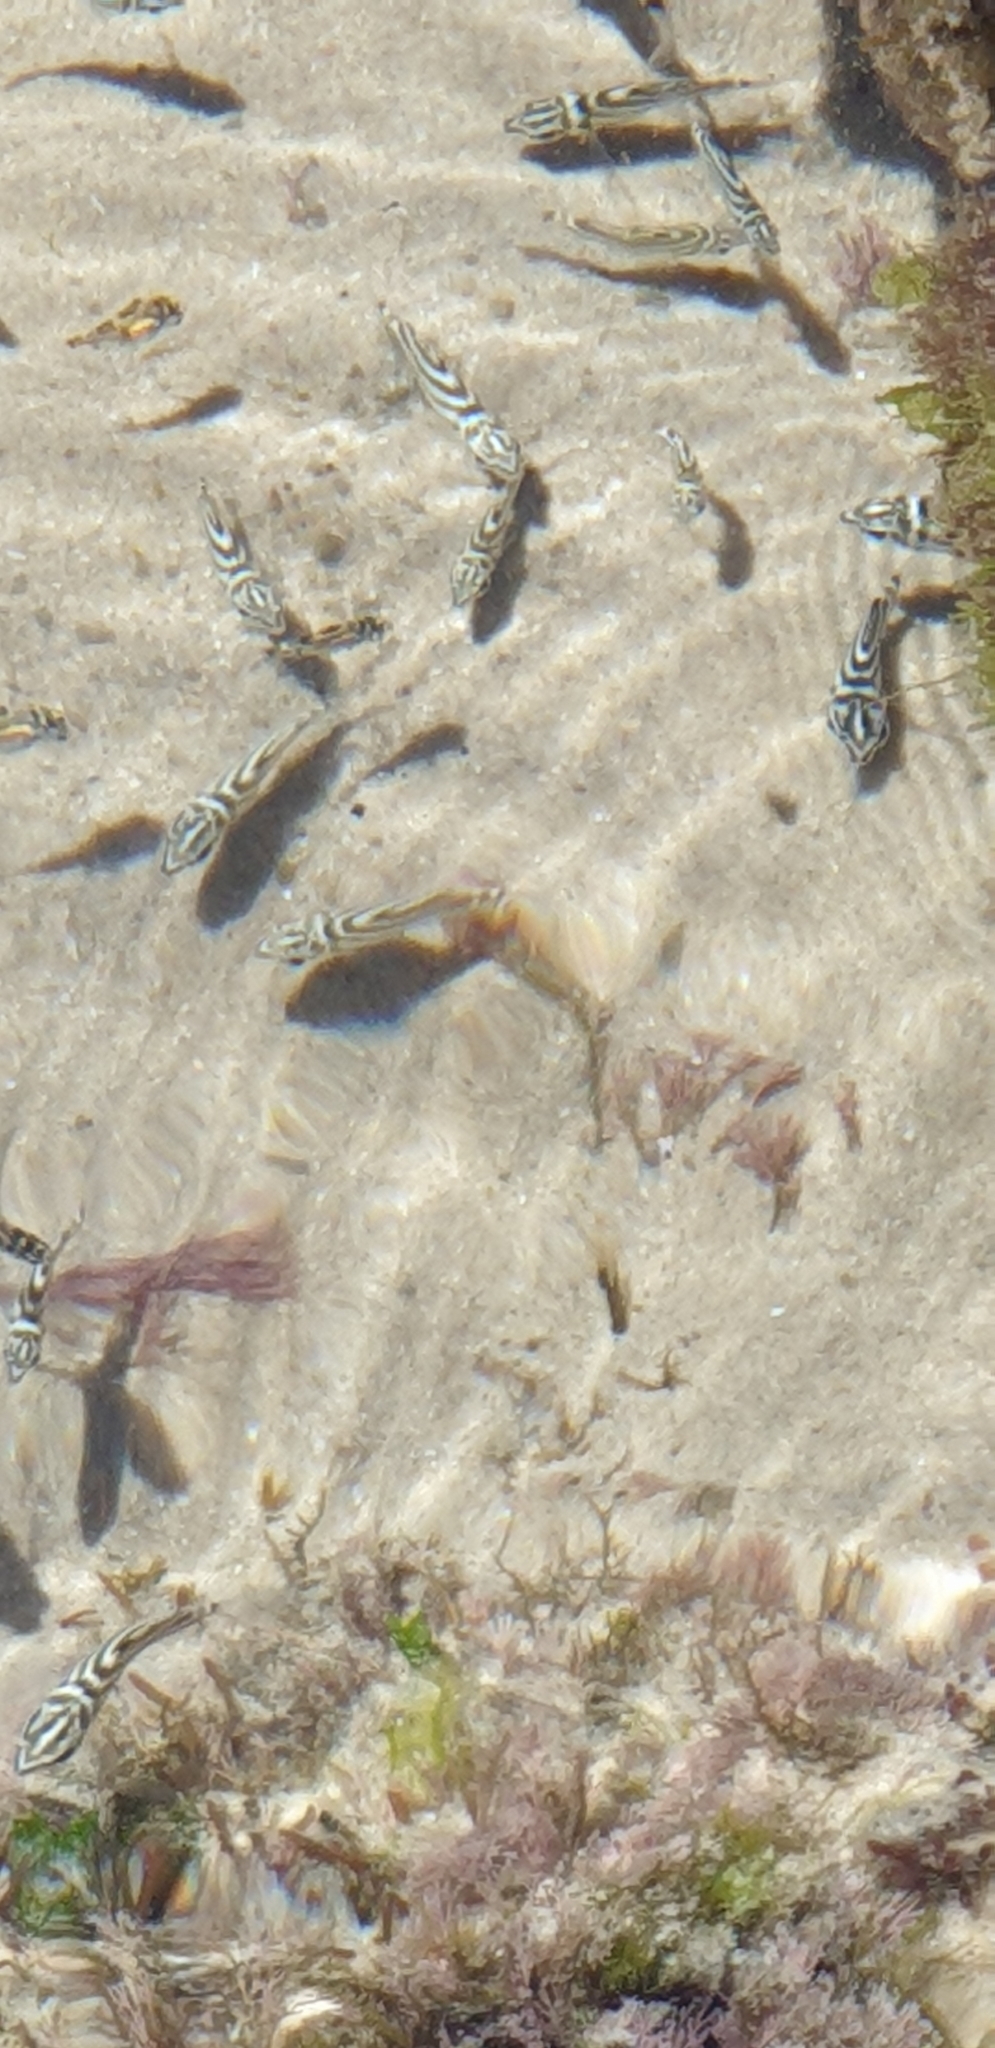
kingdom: Animalia
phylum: Chordata
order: Perciformes
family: Kyphosidae
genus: Microcanthus
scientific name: Microcanthus joyceae
